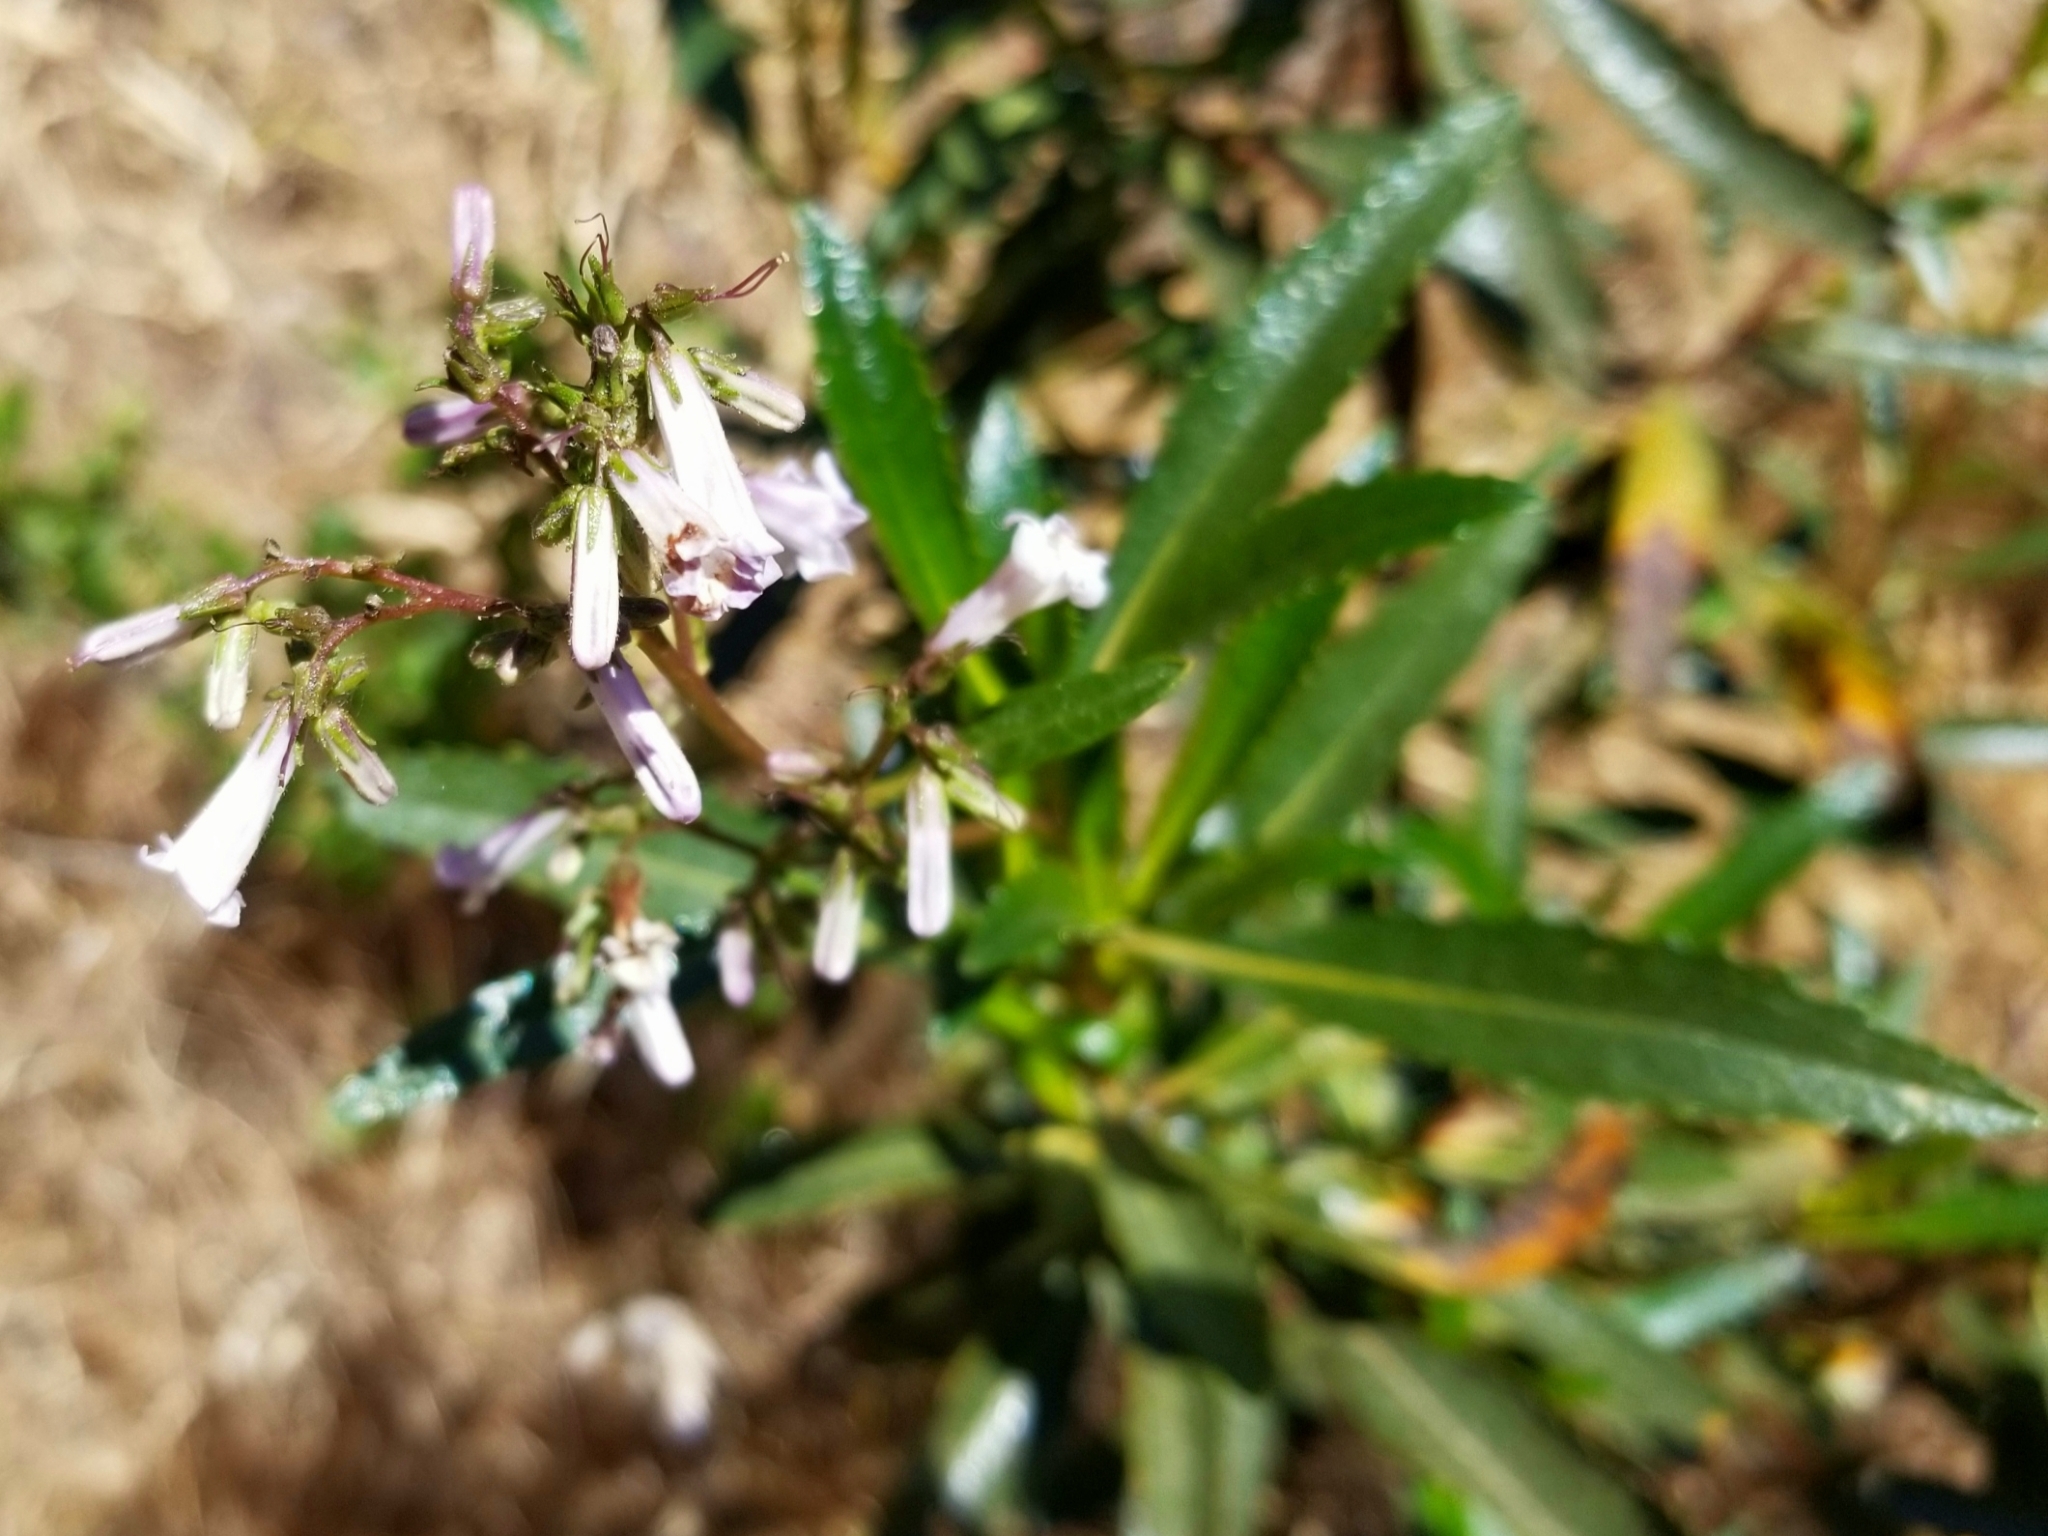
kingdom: Plantae
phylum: Tracheophyta
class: Magnoliopsida
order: Boraginales
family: Namaceae
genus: Eriodictyon
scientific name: Eriodictyon californicum
